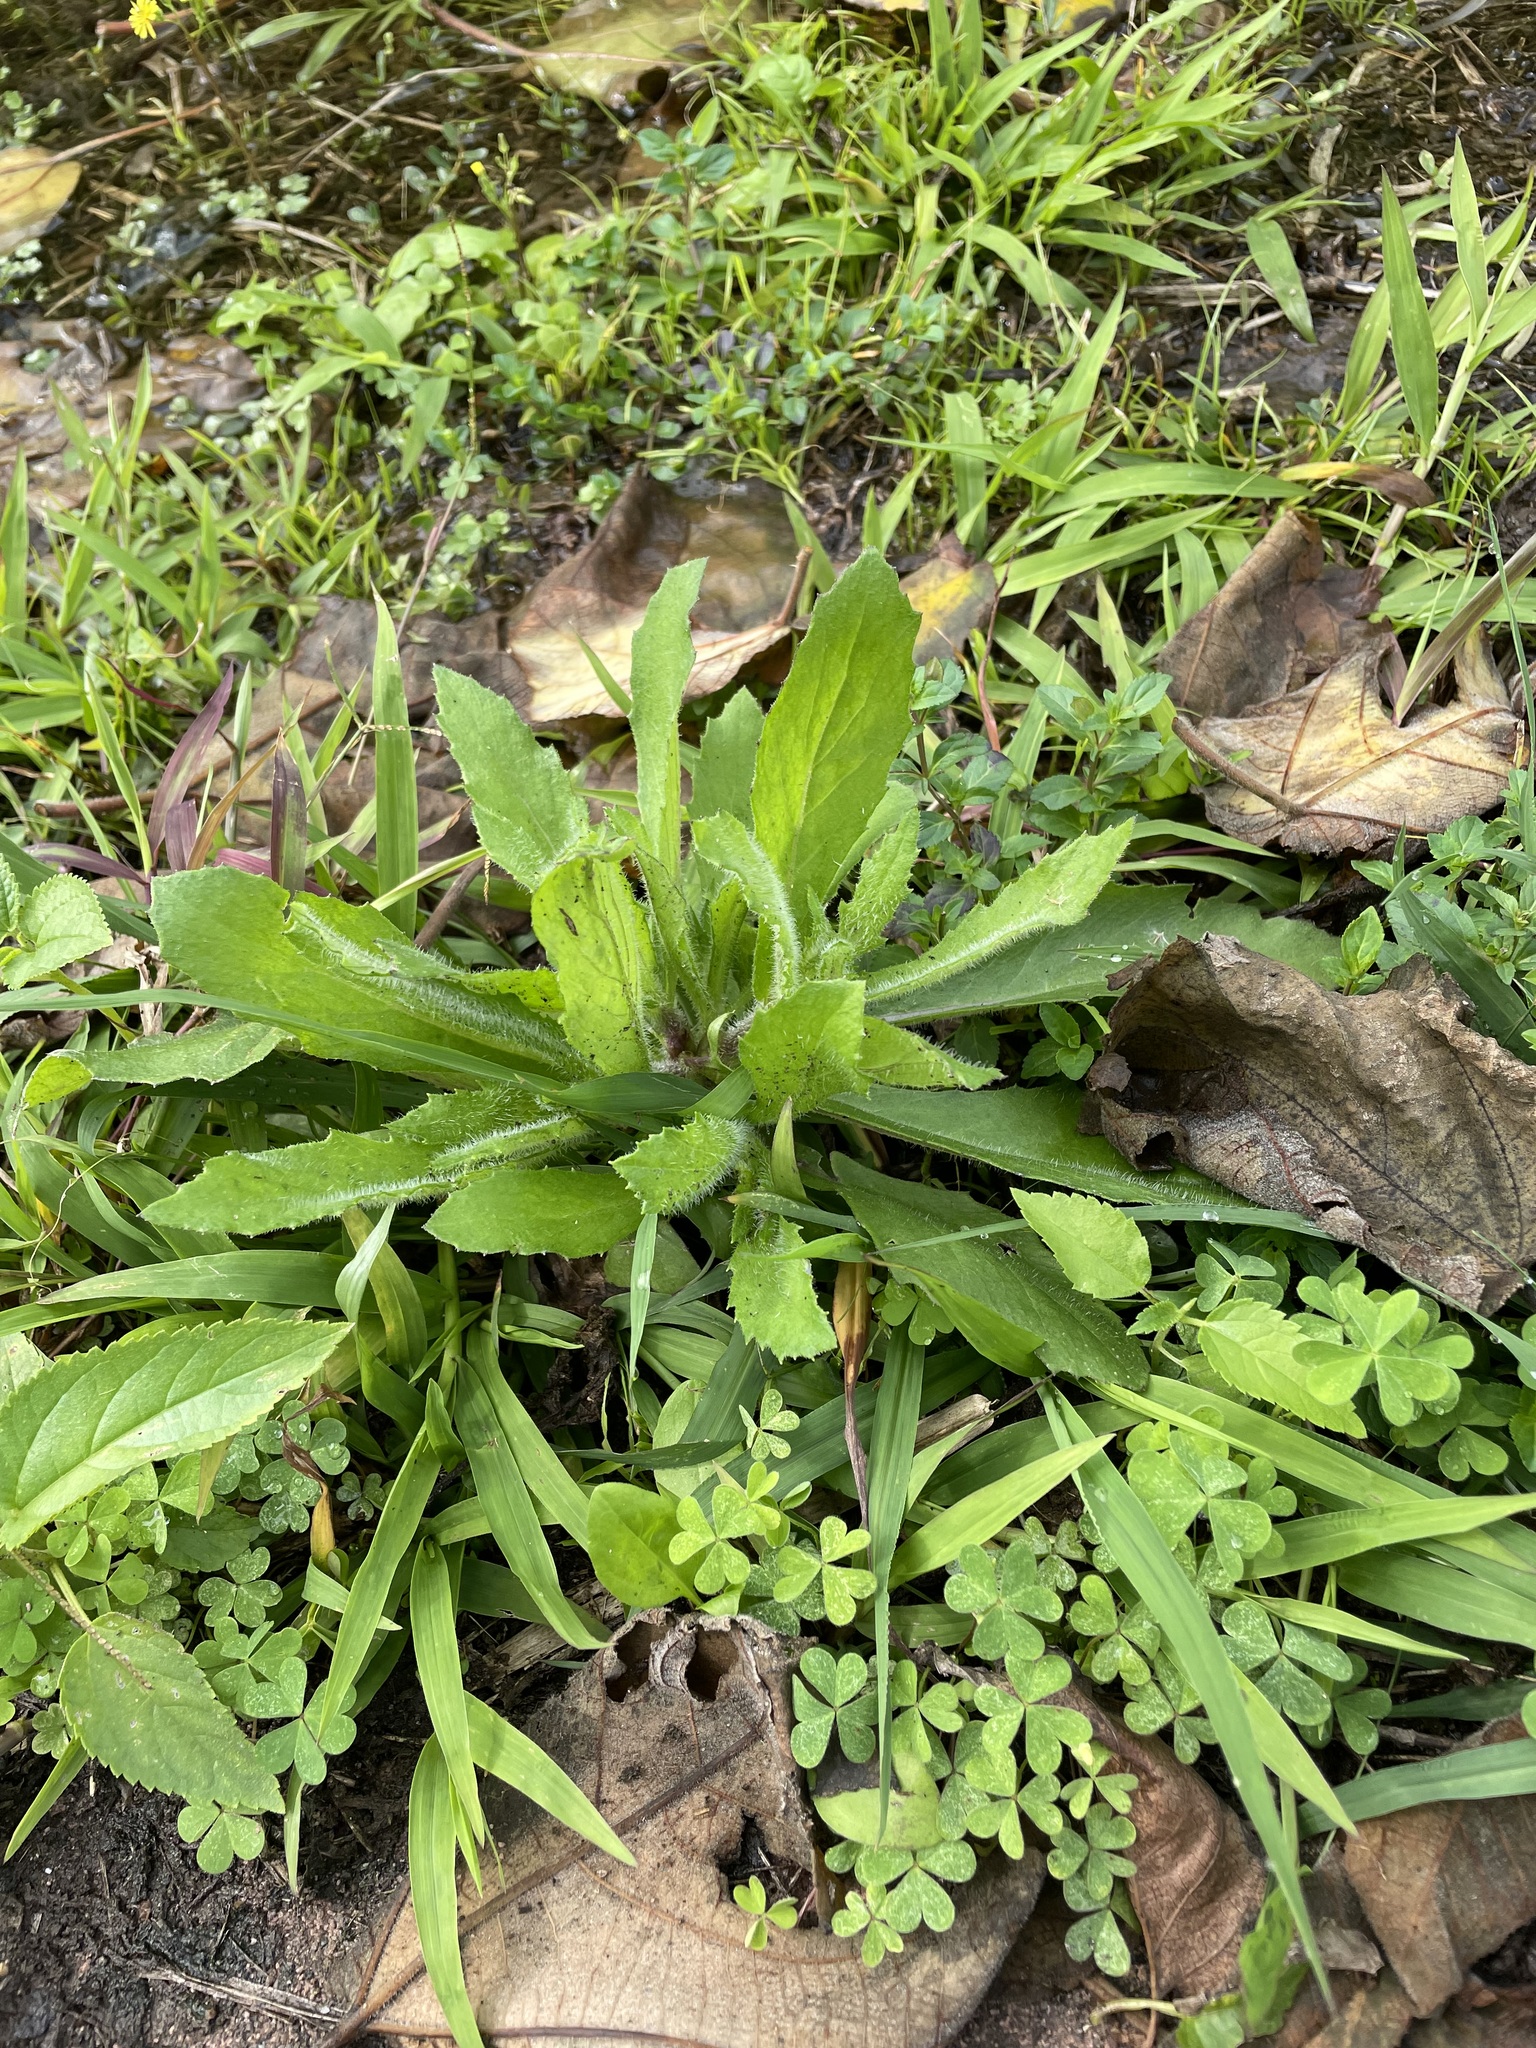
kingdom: Plantae
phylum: Tracheophyta
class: Magnoliopsida
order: Lamiales
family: Plantaginaceae
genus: Plantago
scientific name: Plantago virginica
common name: Hoary plantain
